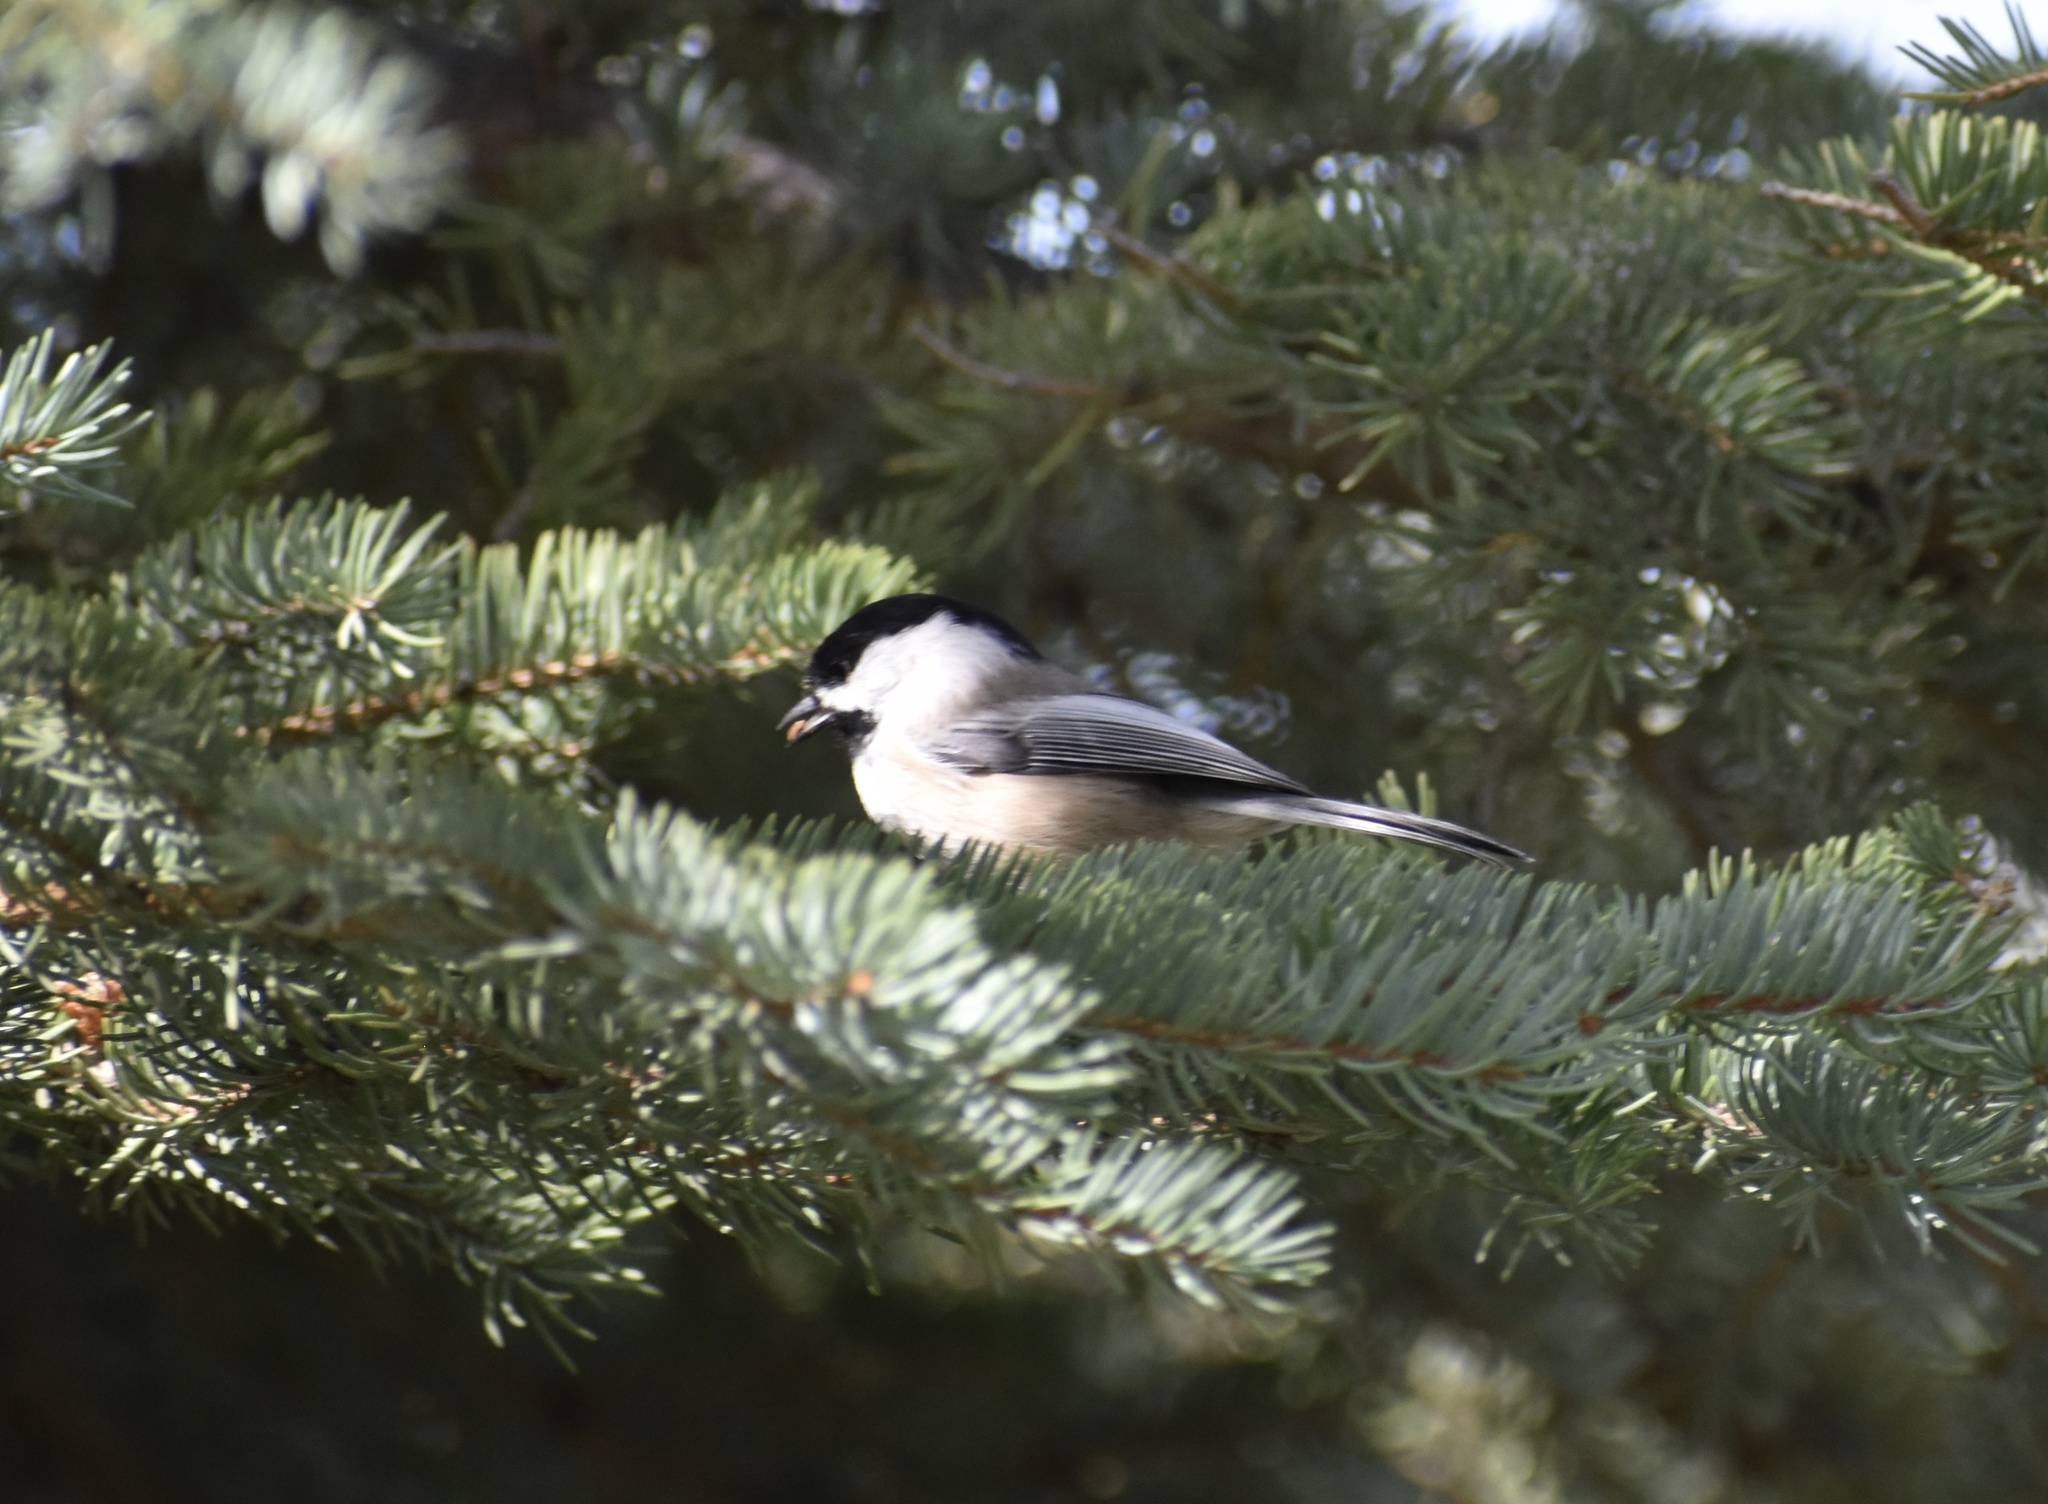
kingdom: Animalia
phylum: Chordata
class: Aves
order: Passeriformes
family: Paridae
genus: Poecile
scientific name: Poecile atricapillus
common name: Black-capped chickadee
